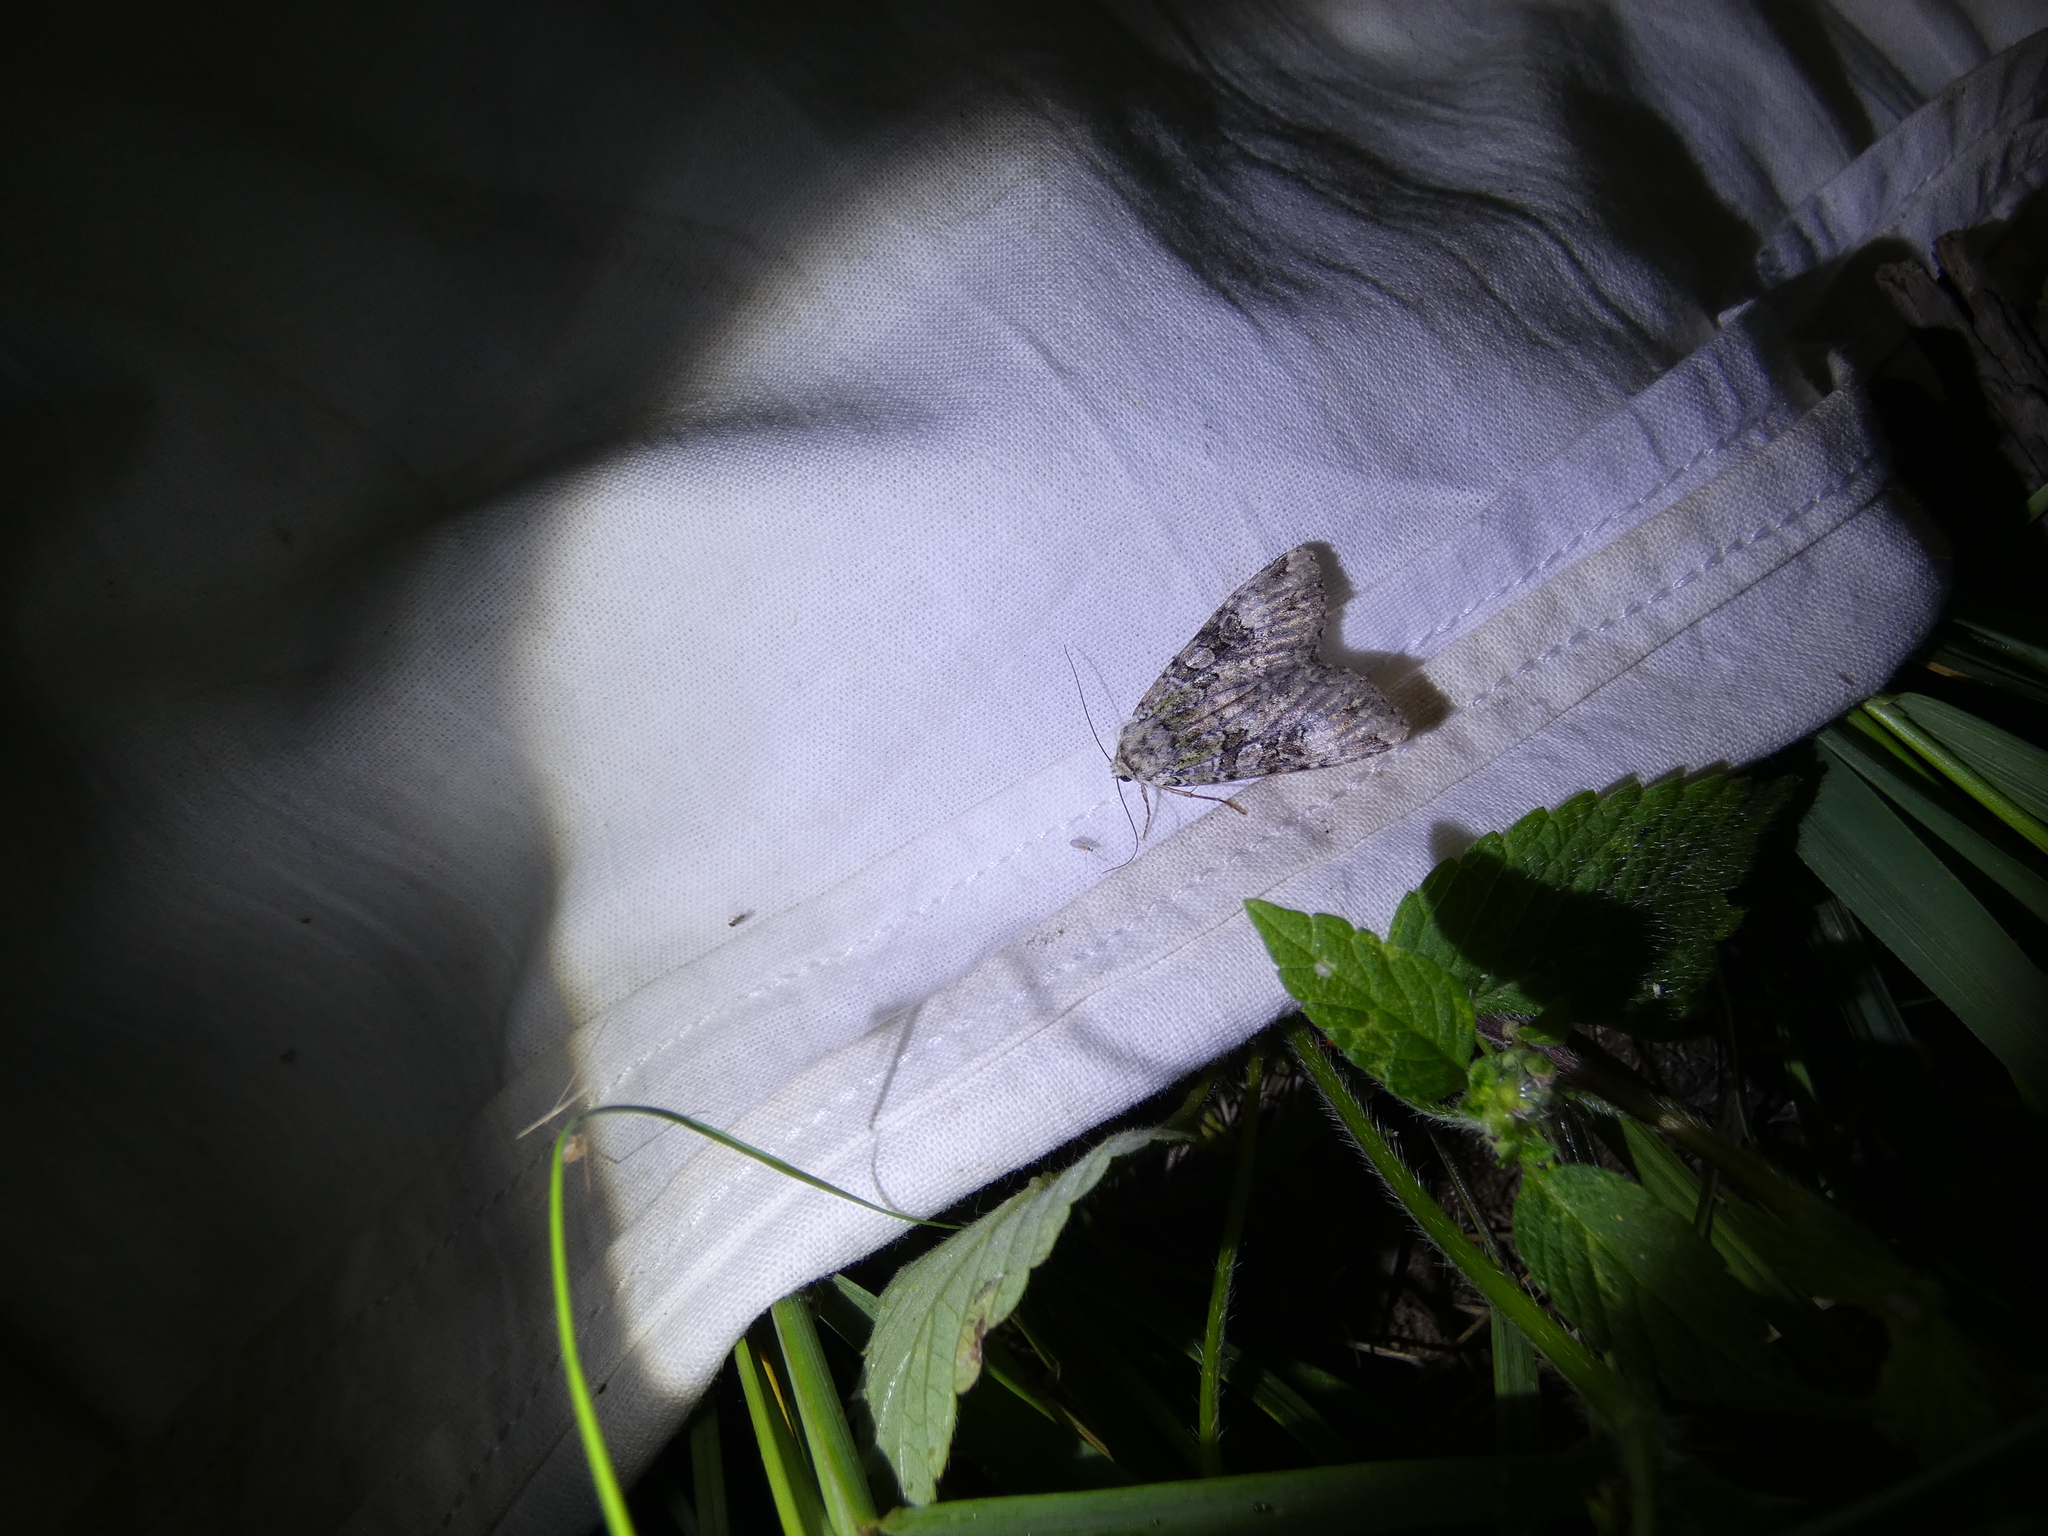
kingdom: Animalia
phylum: Arthropoda
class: Insecta
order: Lepidoptera
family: Noctuidae
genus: Anaplectoides
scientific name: Anaplectoides prasina
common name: Green arches
